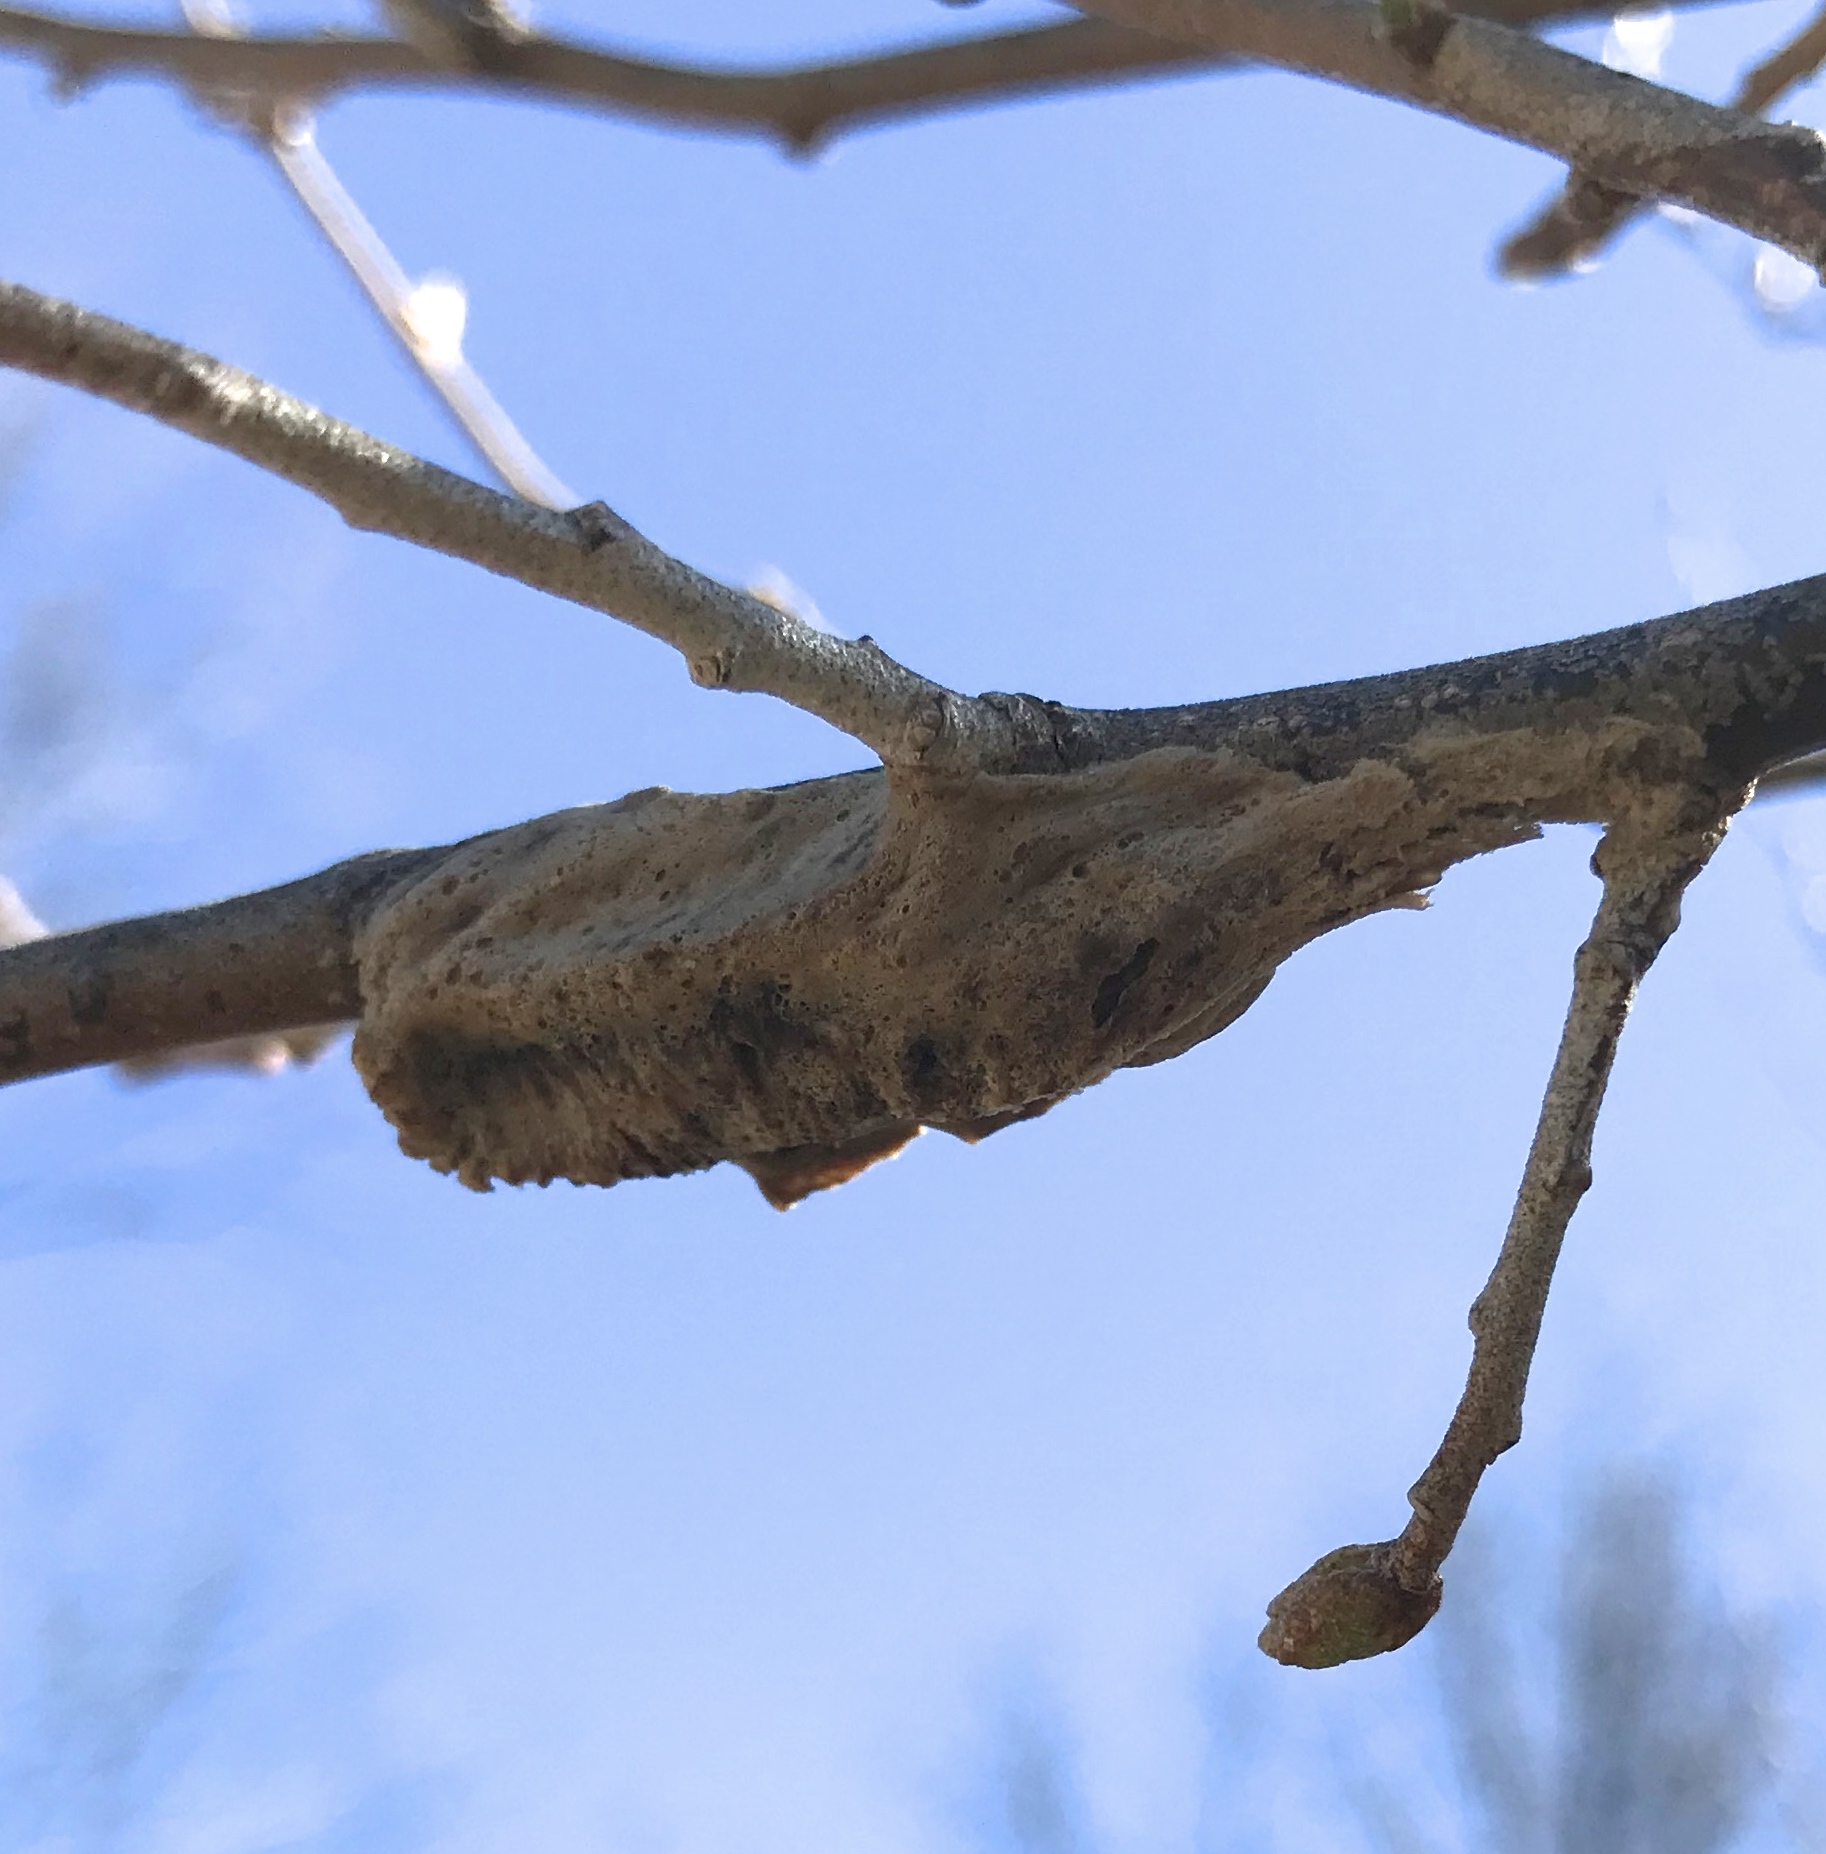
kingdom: Animalia
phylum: Arthropoda
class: Insecta
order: Mantodea
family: Mantidae
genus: Tenodera
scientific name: Tenodera angustipennis
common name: Asian mantis
